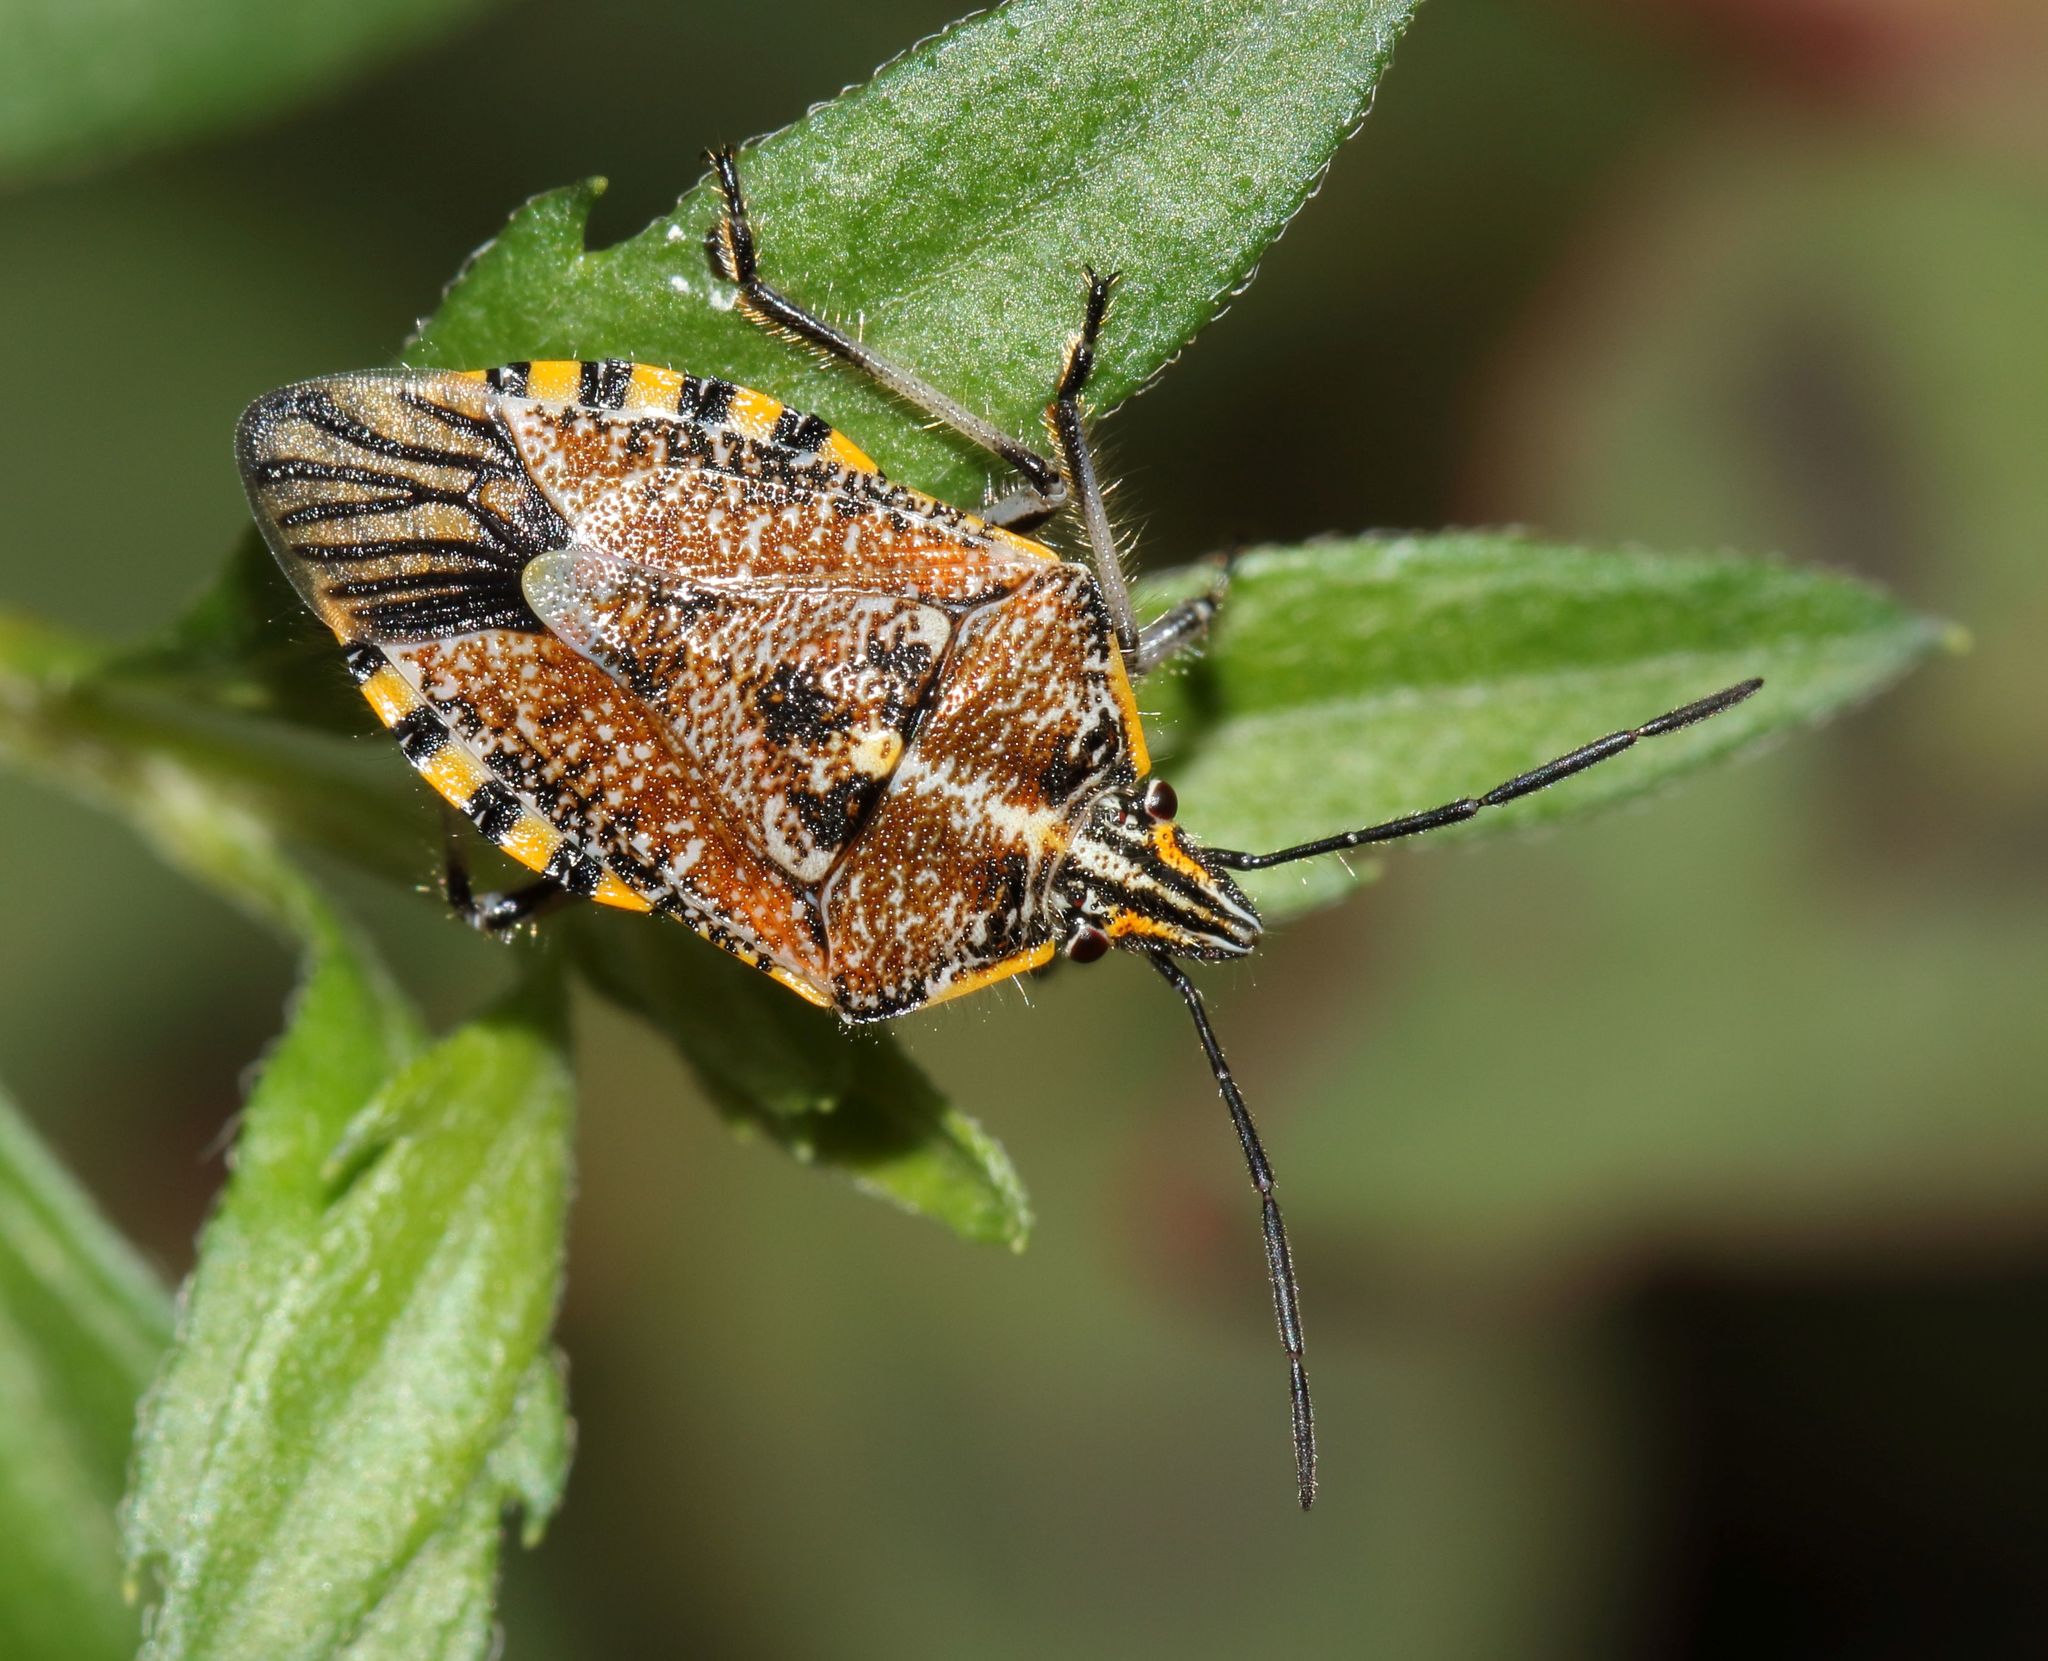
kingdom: Animalia
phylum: Arthropoda
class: Insecta
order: Hemiptera
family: Pentatomidae
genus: Agonoscelis
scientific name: Agonoscelis versicoloratus
